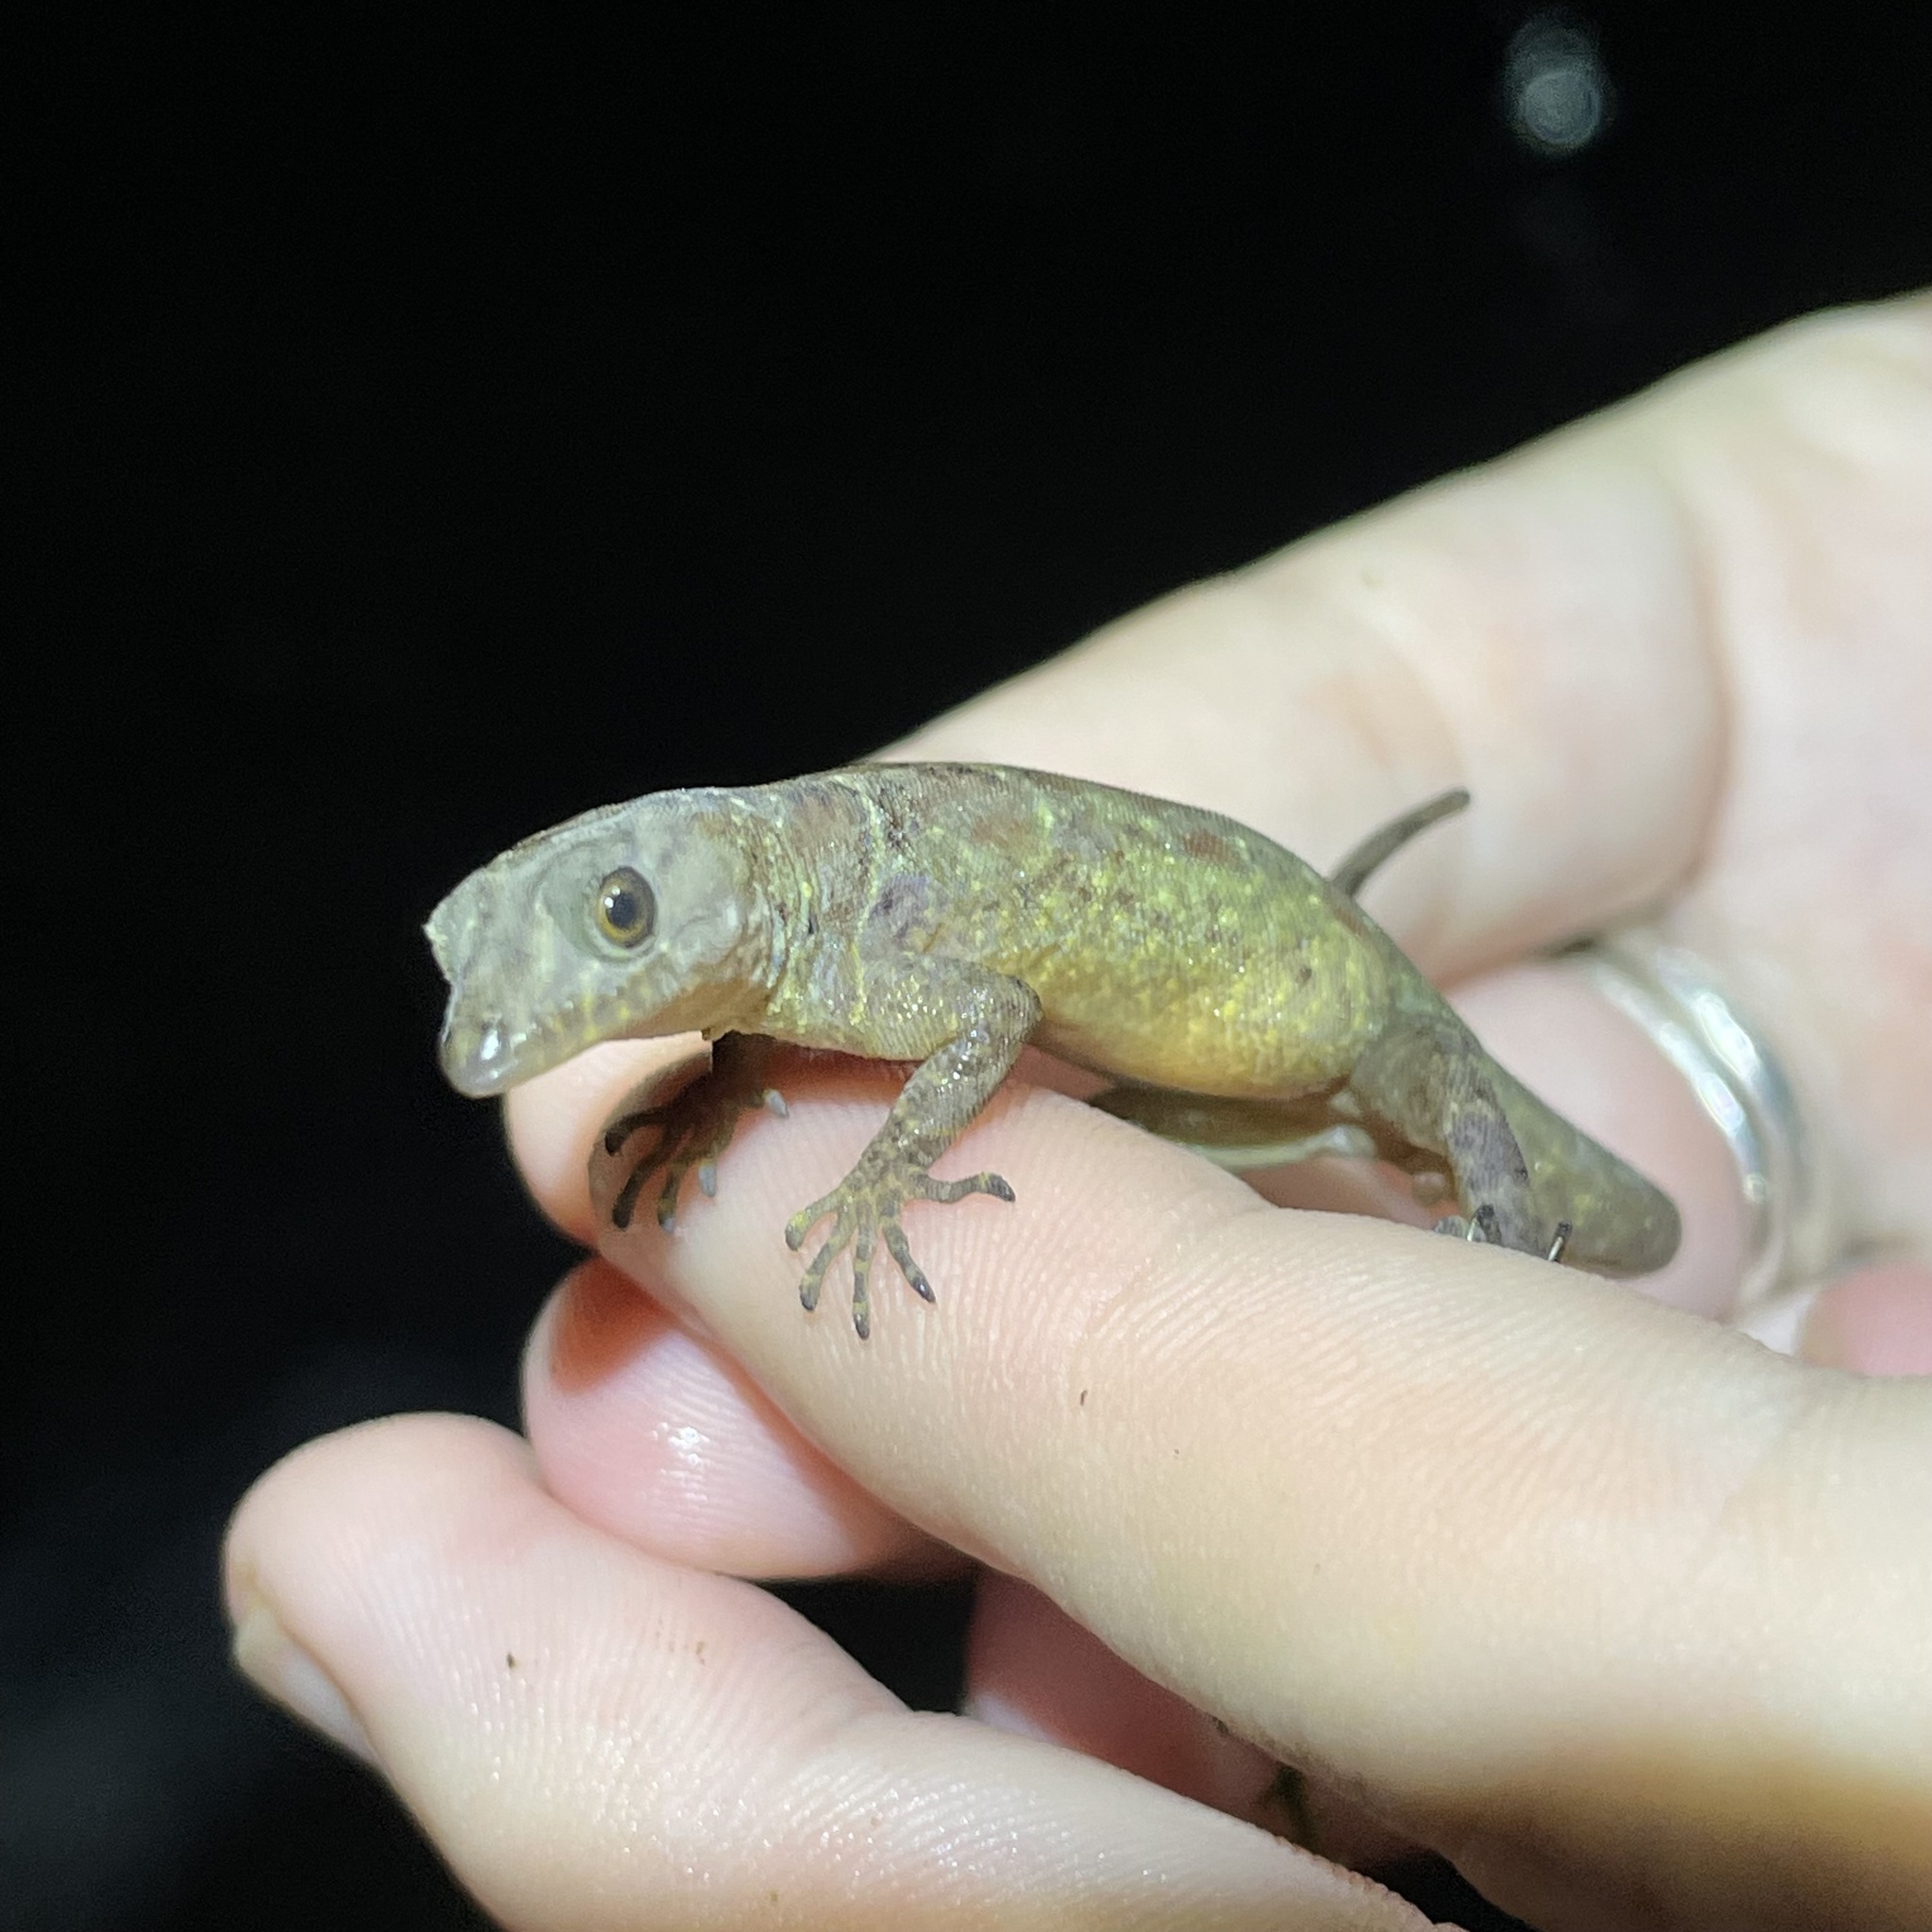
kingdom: Animalia
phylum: Chordata
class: Squamata
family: Sphaerodactylidae
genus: Gonatodes
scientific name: Gonatodes humeralis
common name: South american clawed gecko
